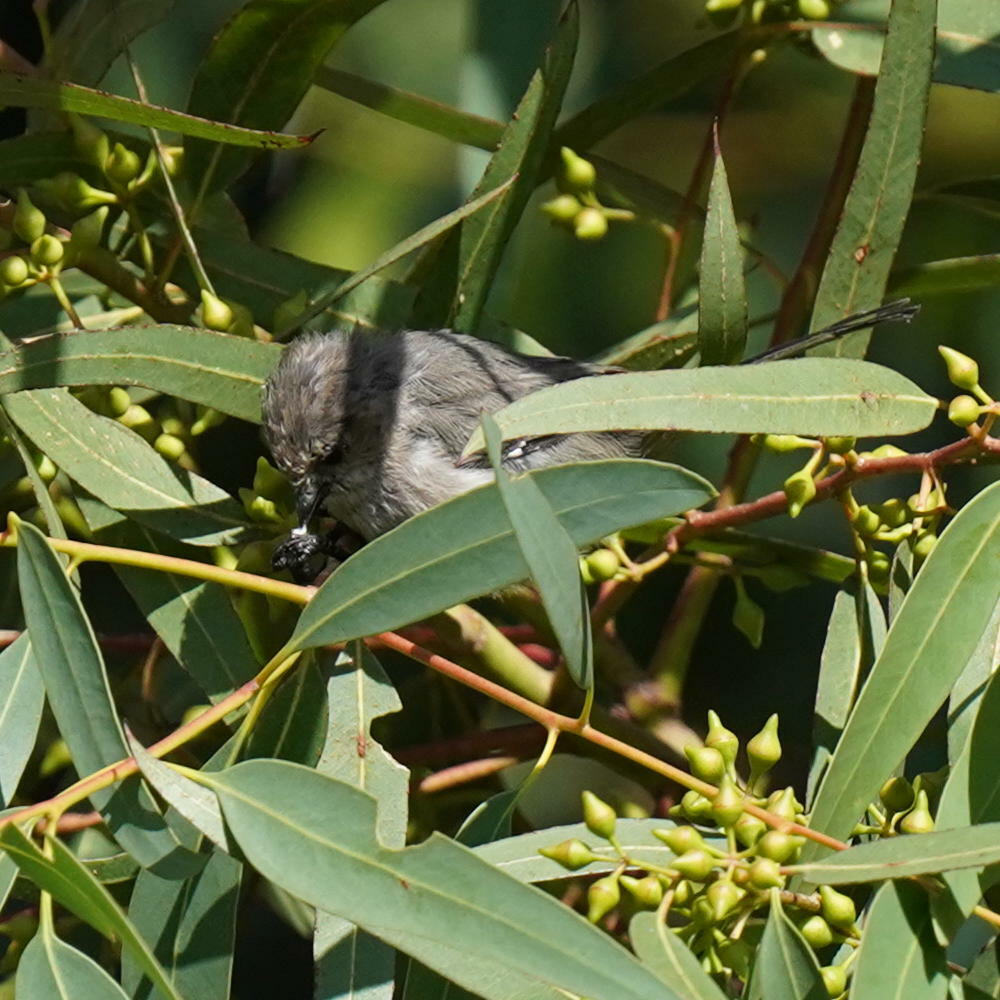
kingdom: Animalia
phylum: Chordata
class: Aves
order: Passeriformes
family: Aegithalidae
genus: Psaltriparus
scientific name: Psaltriparus minimus
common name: American bushtit
